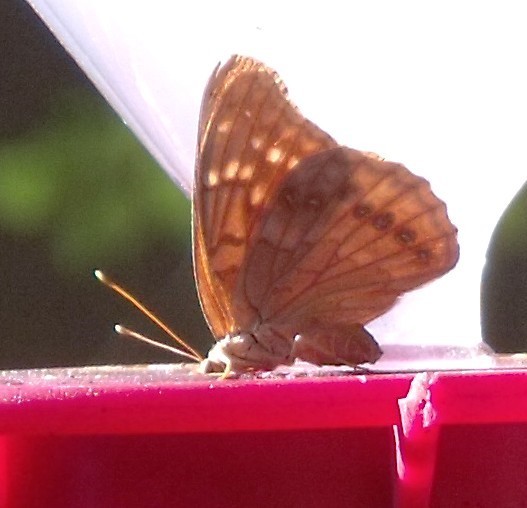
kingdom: Animalia
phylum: Arthropoda
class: Insecta
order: Lepidoptera
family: Nymphalidae
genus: Asterocampa
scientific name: Asterocampa clyton
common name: Tawny emperor
